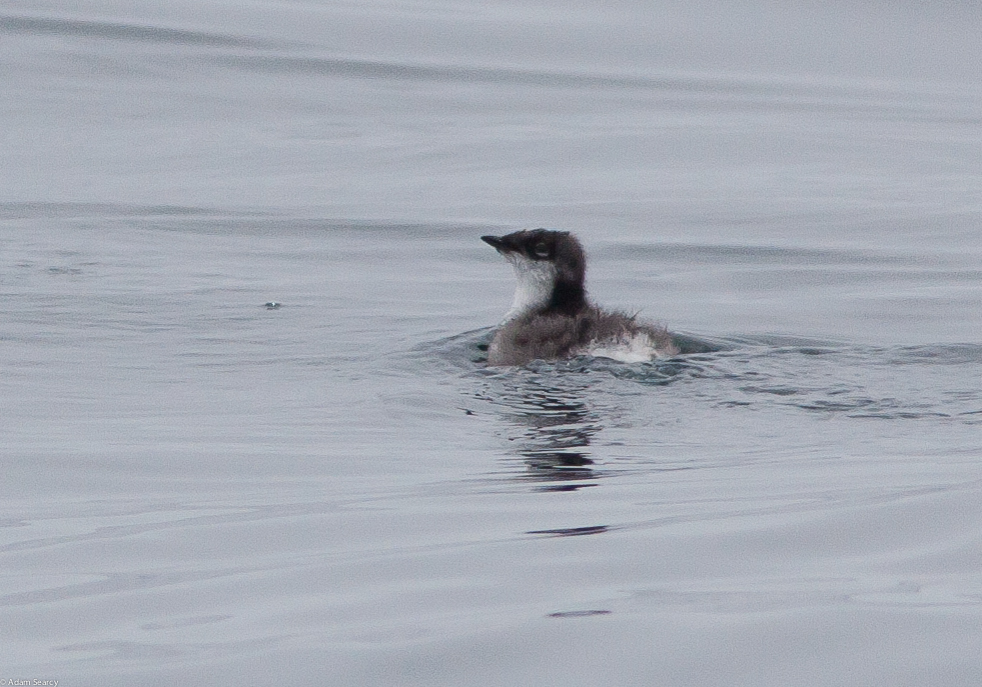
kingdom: Animalia
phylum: Chordata
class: Aves
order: Charadriiformes
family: Alcidae
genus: Synthliboramphus
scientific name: Synthliboramphus scrippsi
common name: Scripps's murrelet
